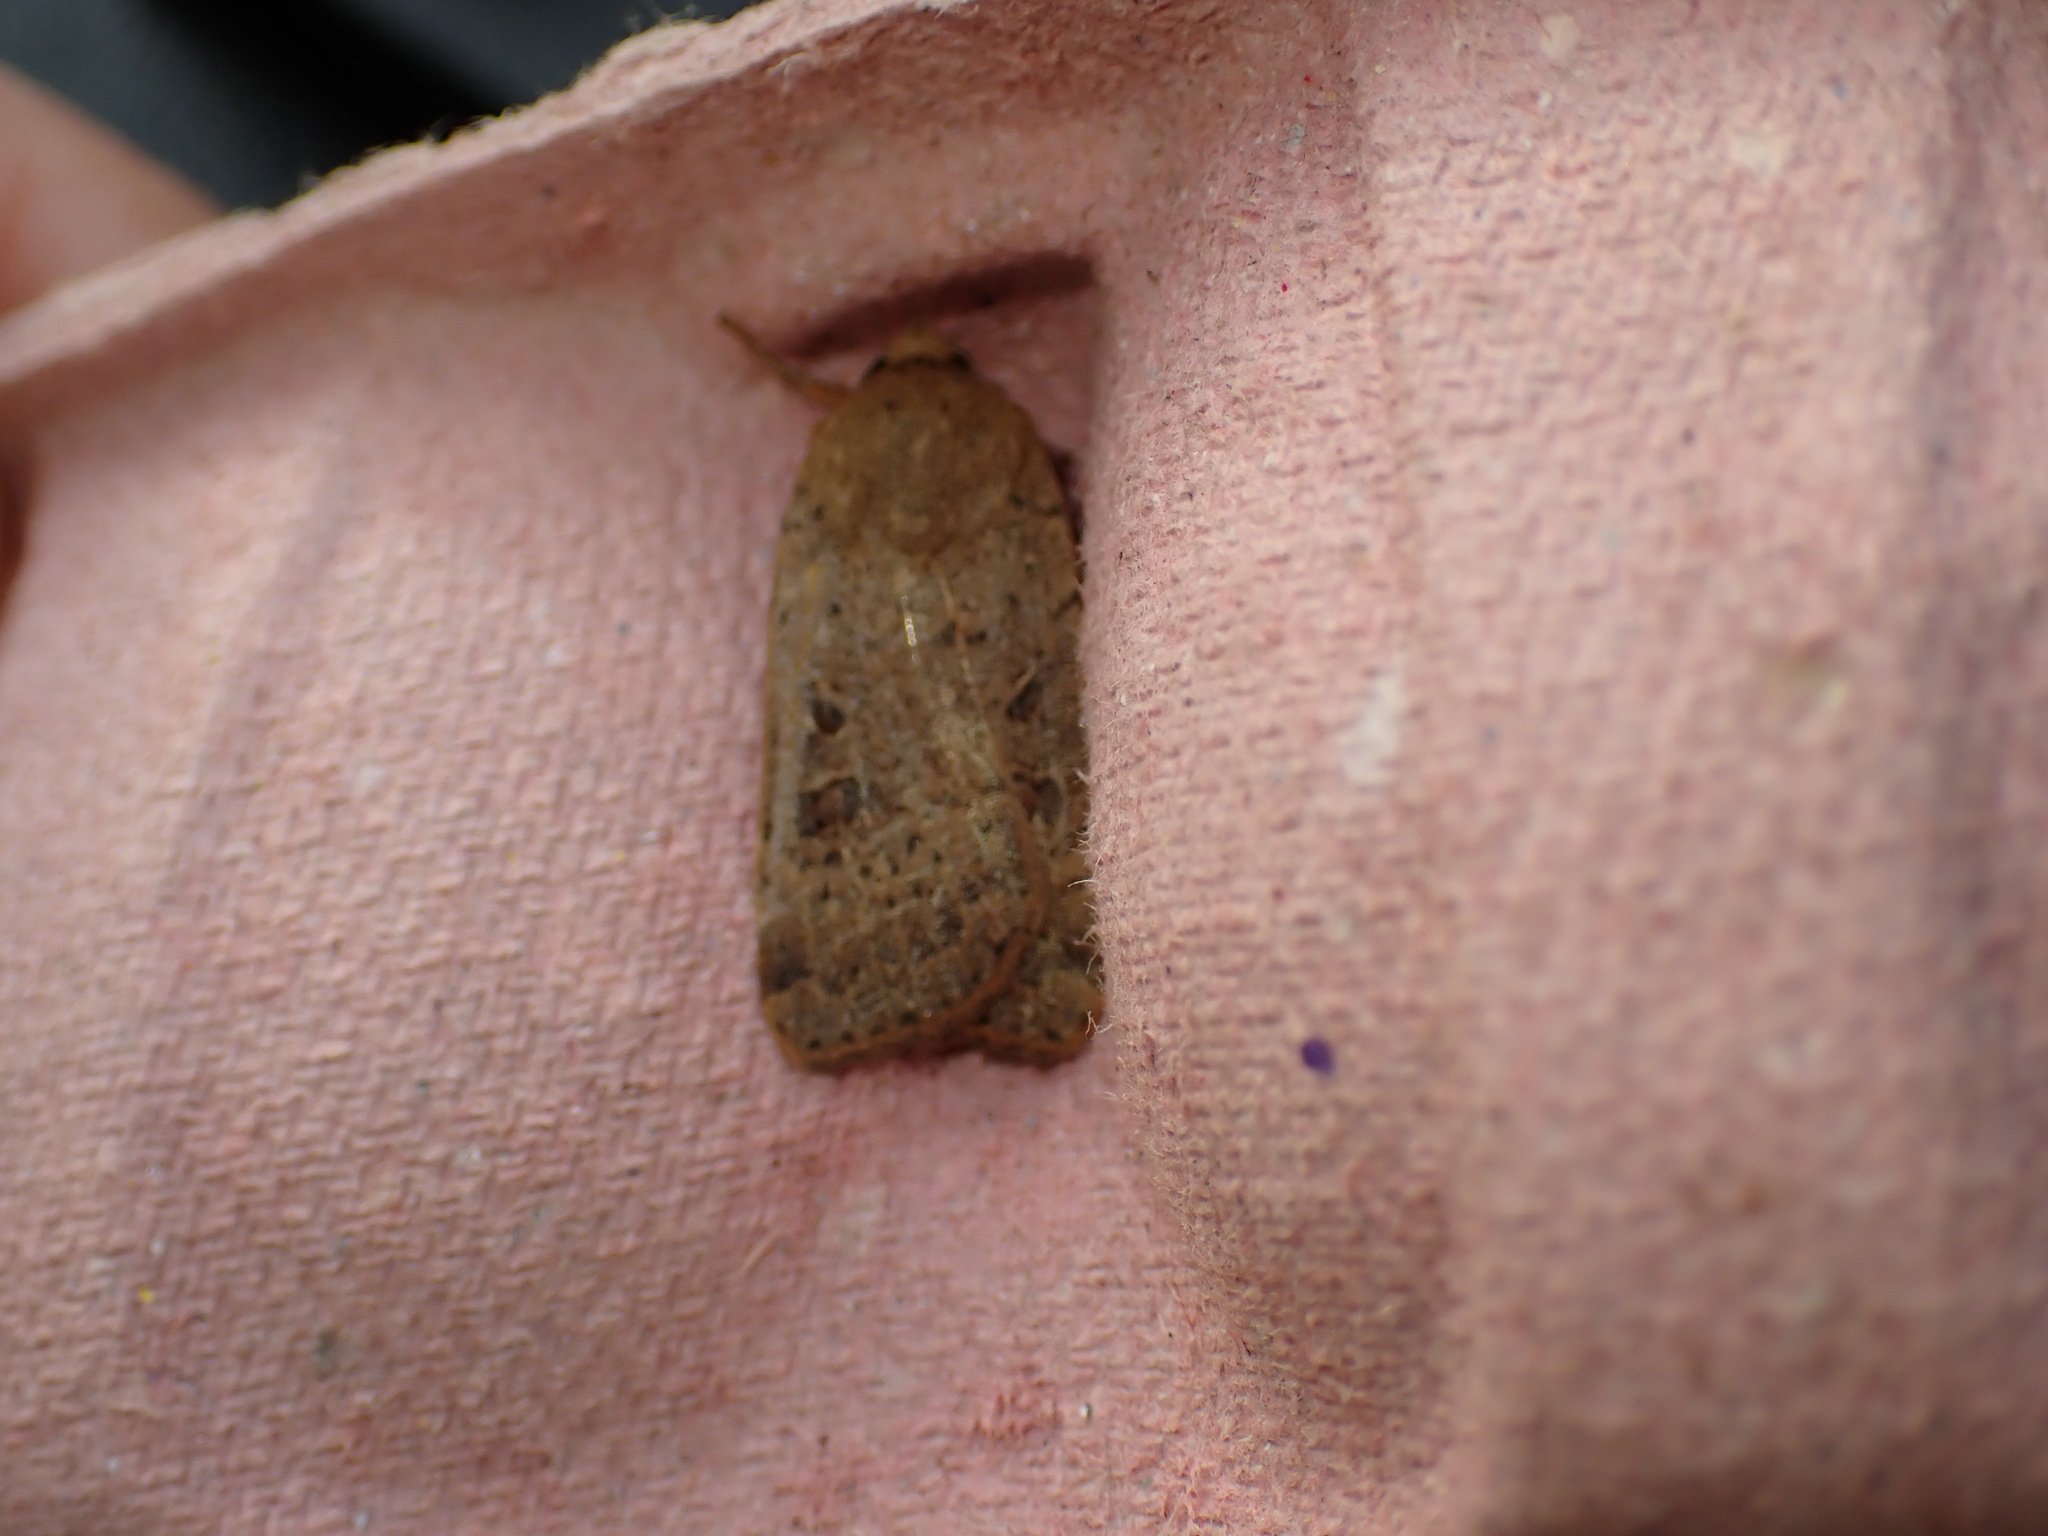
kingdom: Animalia
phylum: Arthropoda
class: Insecta
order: Lepidoptera
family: Noctuidae
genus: Noctua
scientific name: Noctua comes
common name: Lesser yellow underwing
